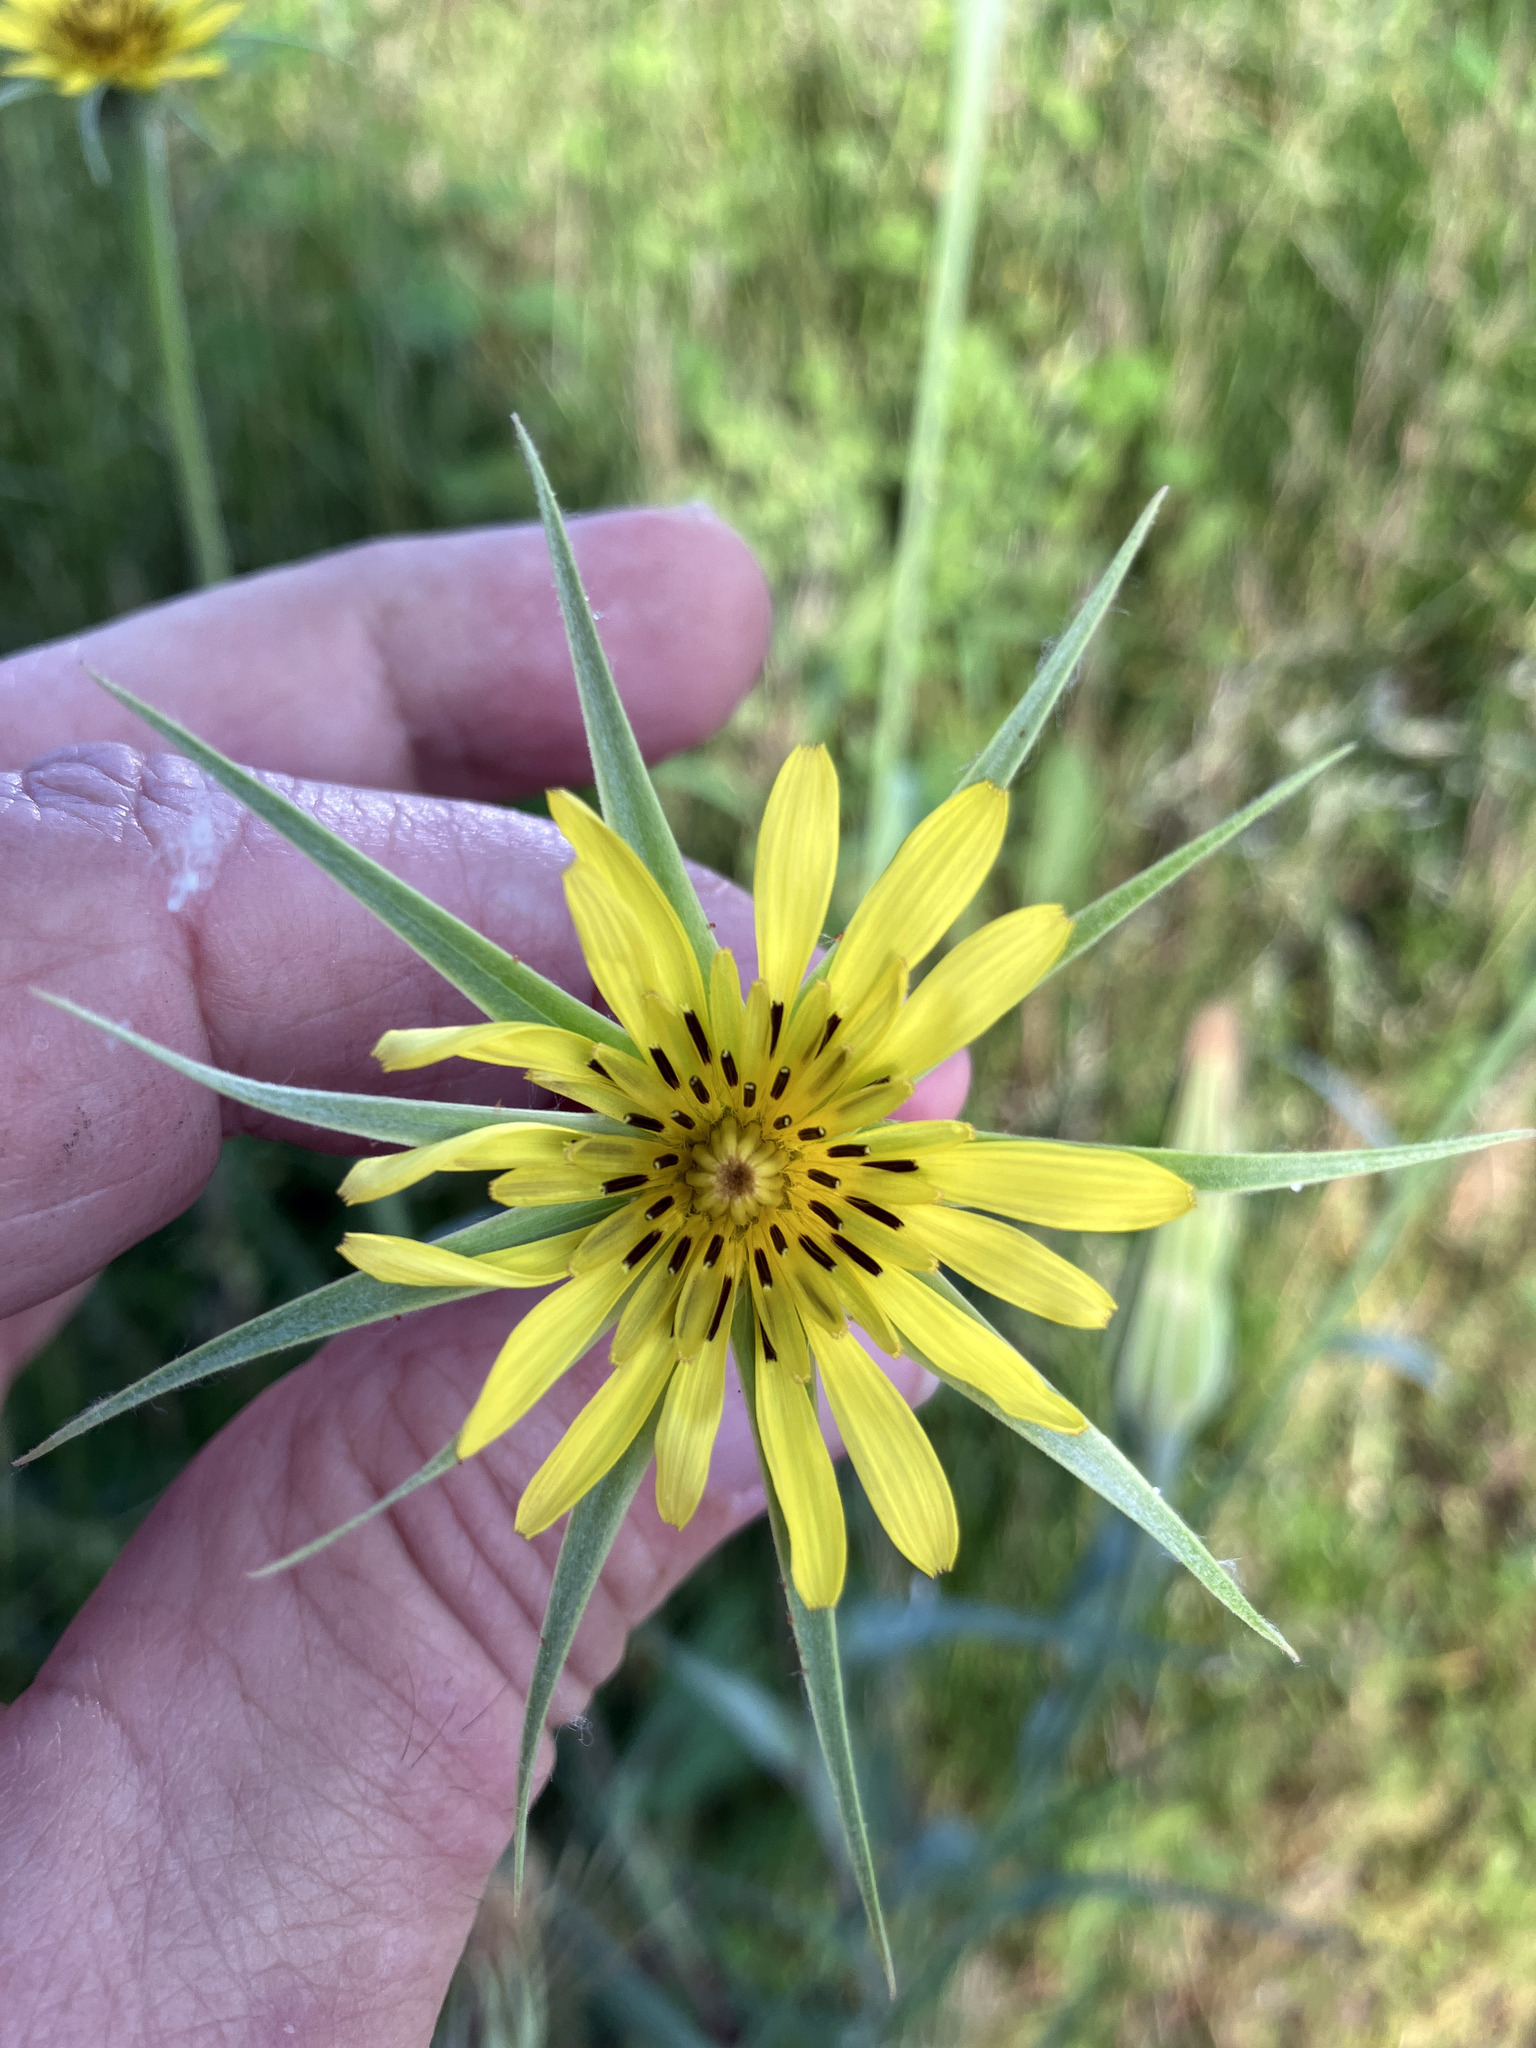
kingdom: Plantae
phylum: Tracheophyta
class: Magnoliopsida
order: Asterales
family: Asteraceae
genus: Tragopogon
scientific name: Tragopogon dubius
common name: Yellow salsify
